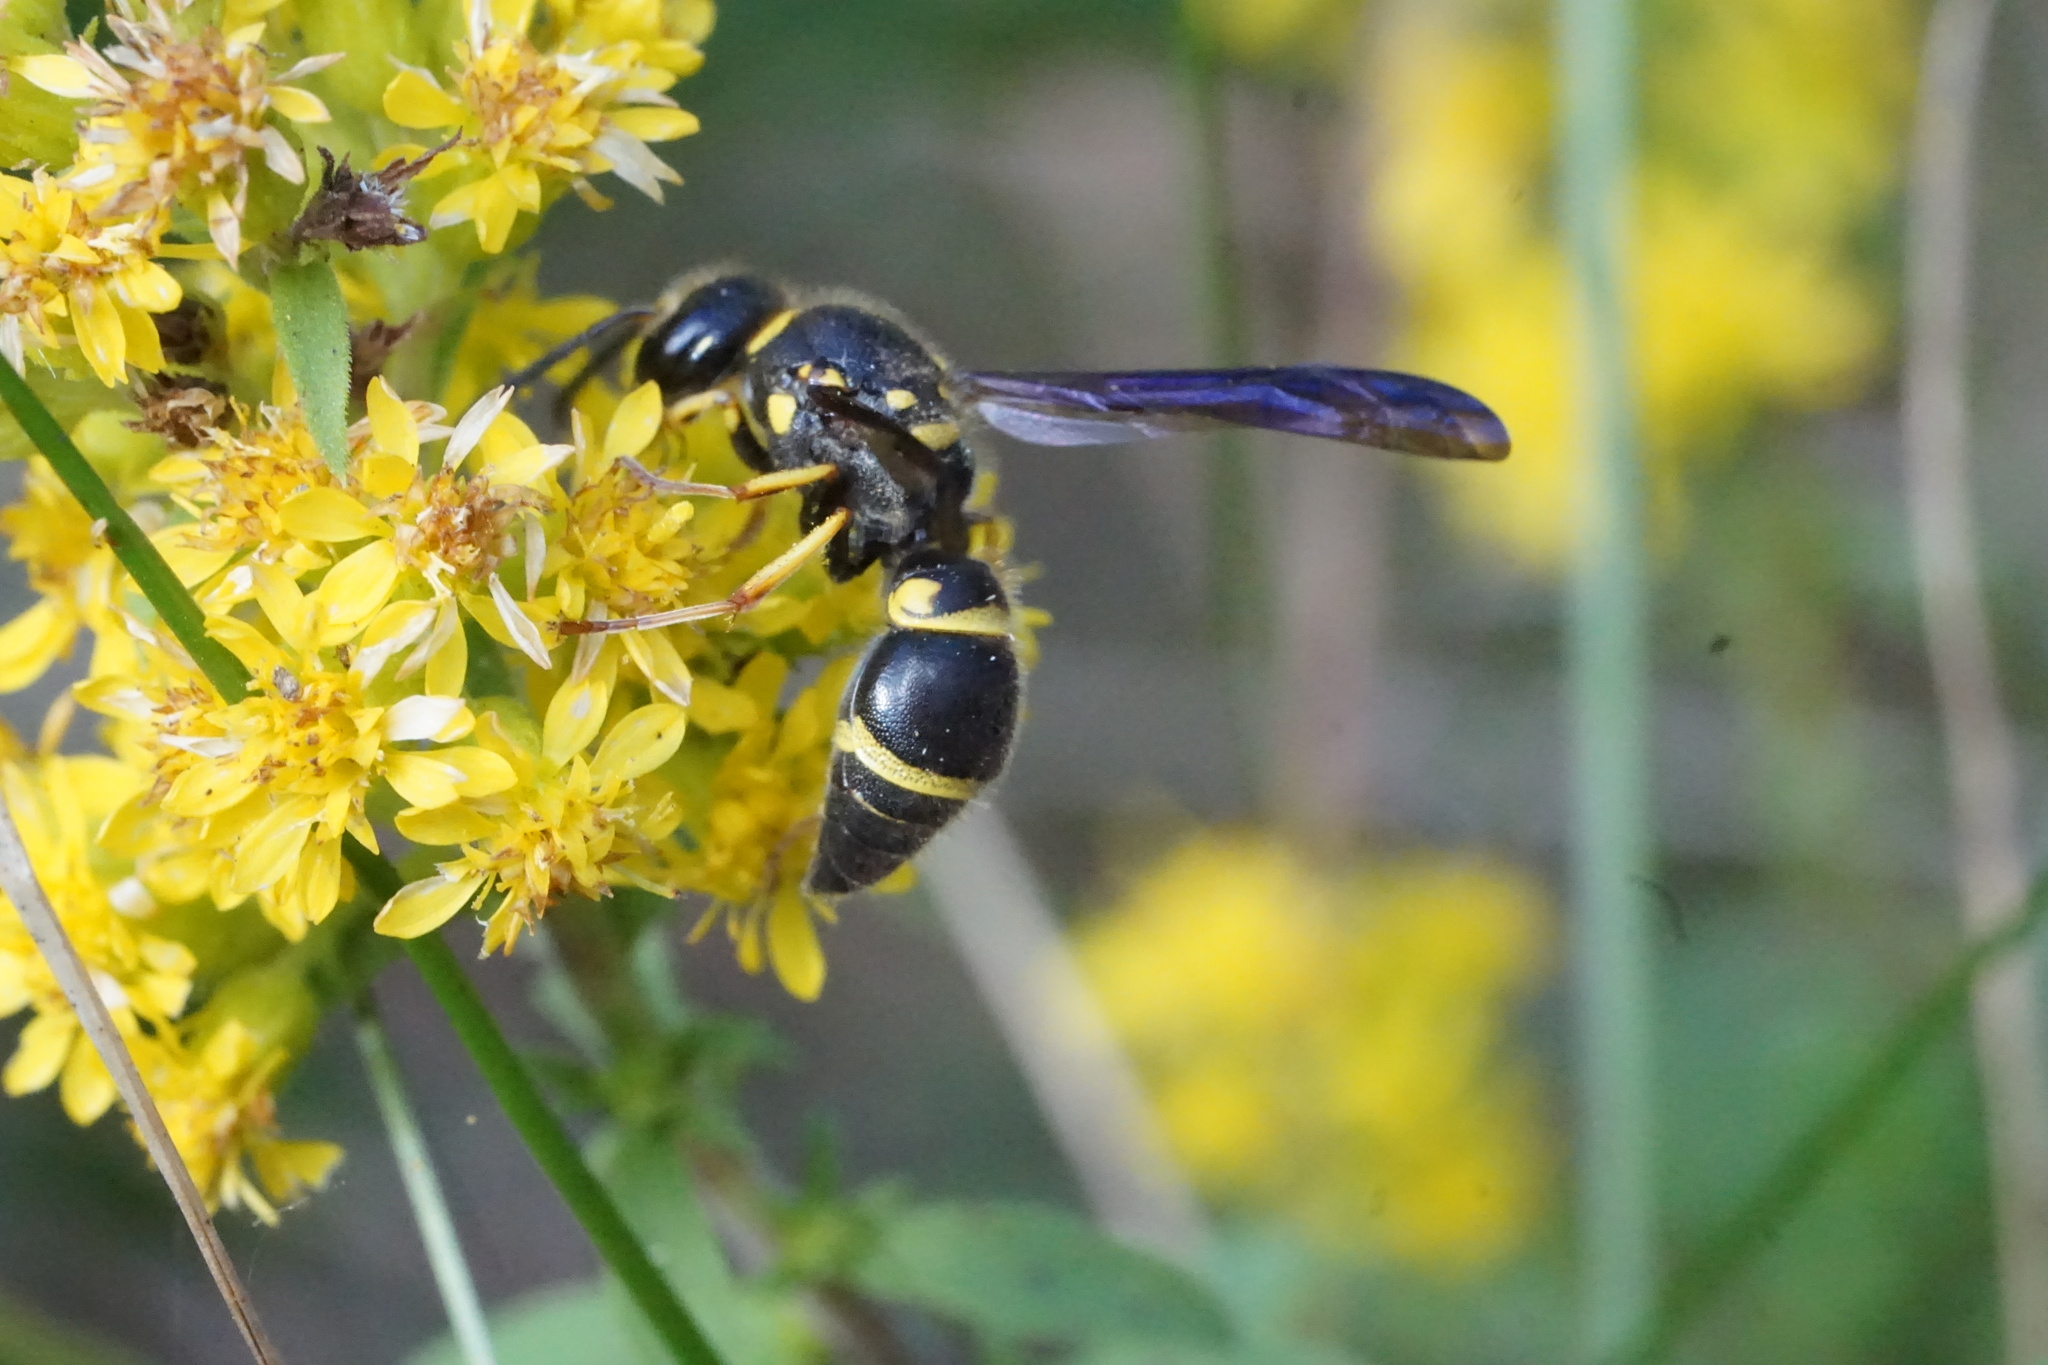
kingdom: Animalia
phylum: Arthropoda
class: Insecta
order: Hymenoptera
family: Vespidae
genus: Ancistrocerus
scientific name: Ancistrocerus campestris
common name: Smiling mason wasp
